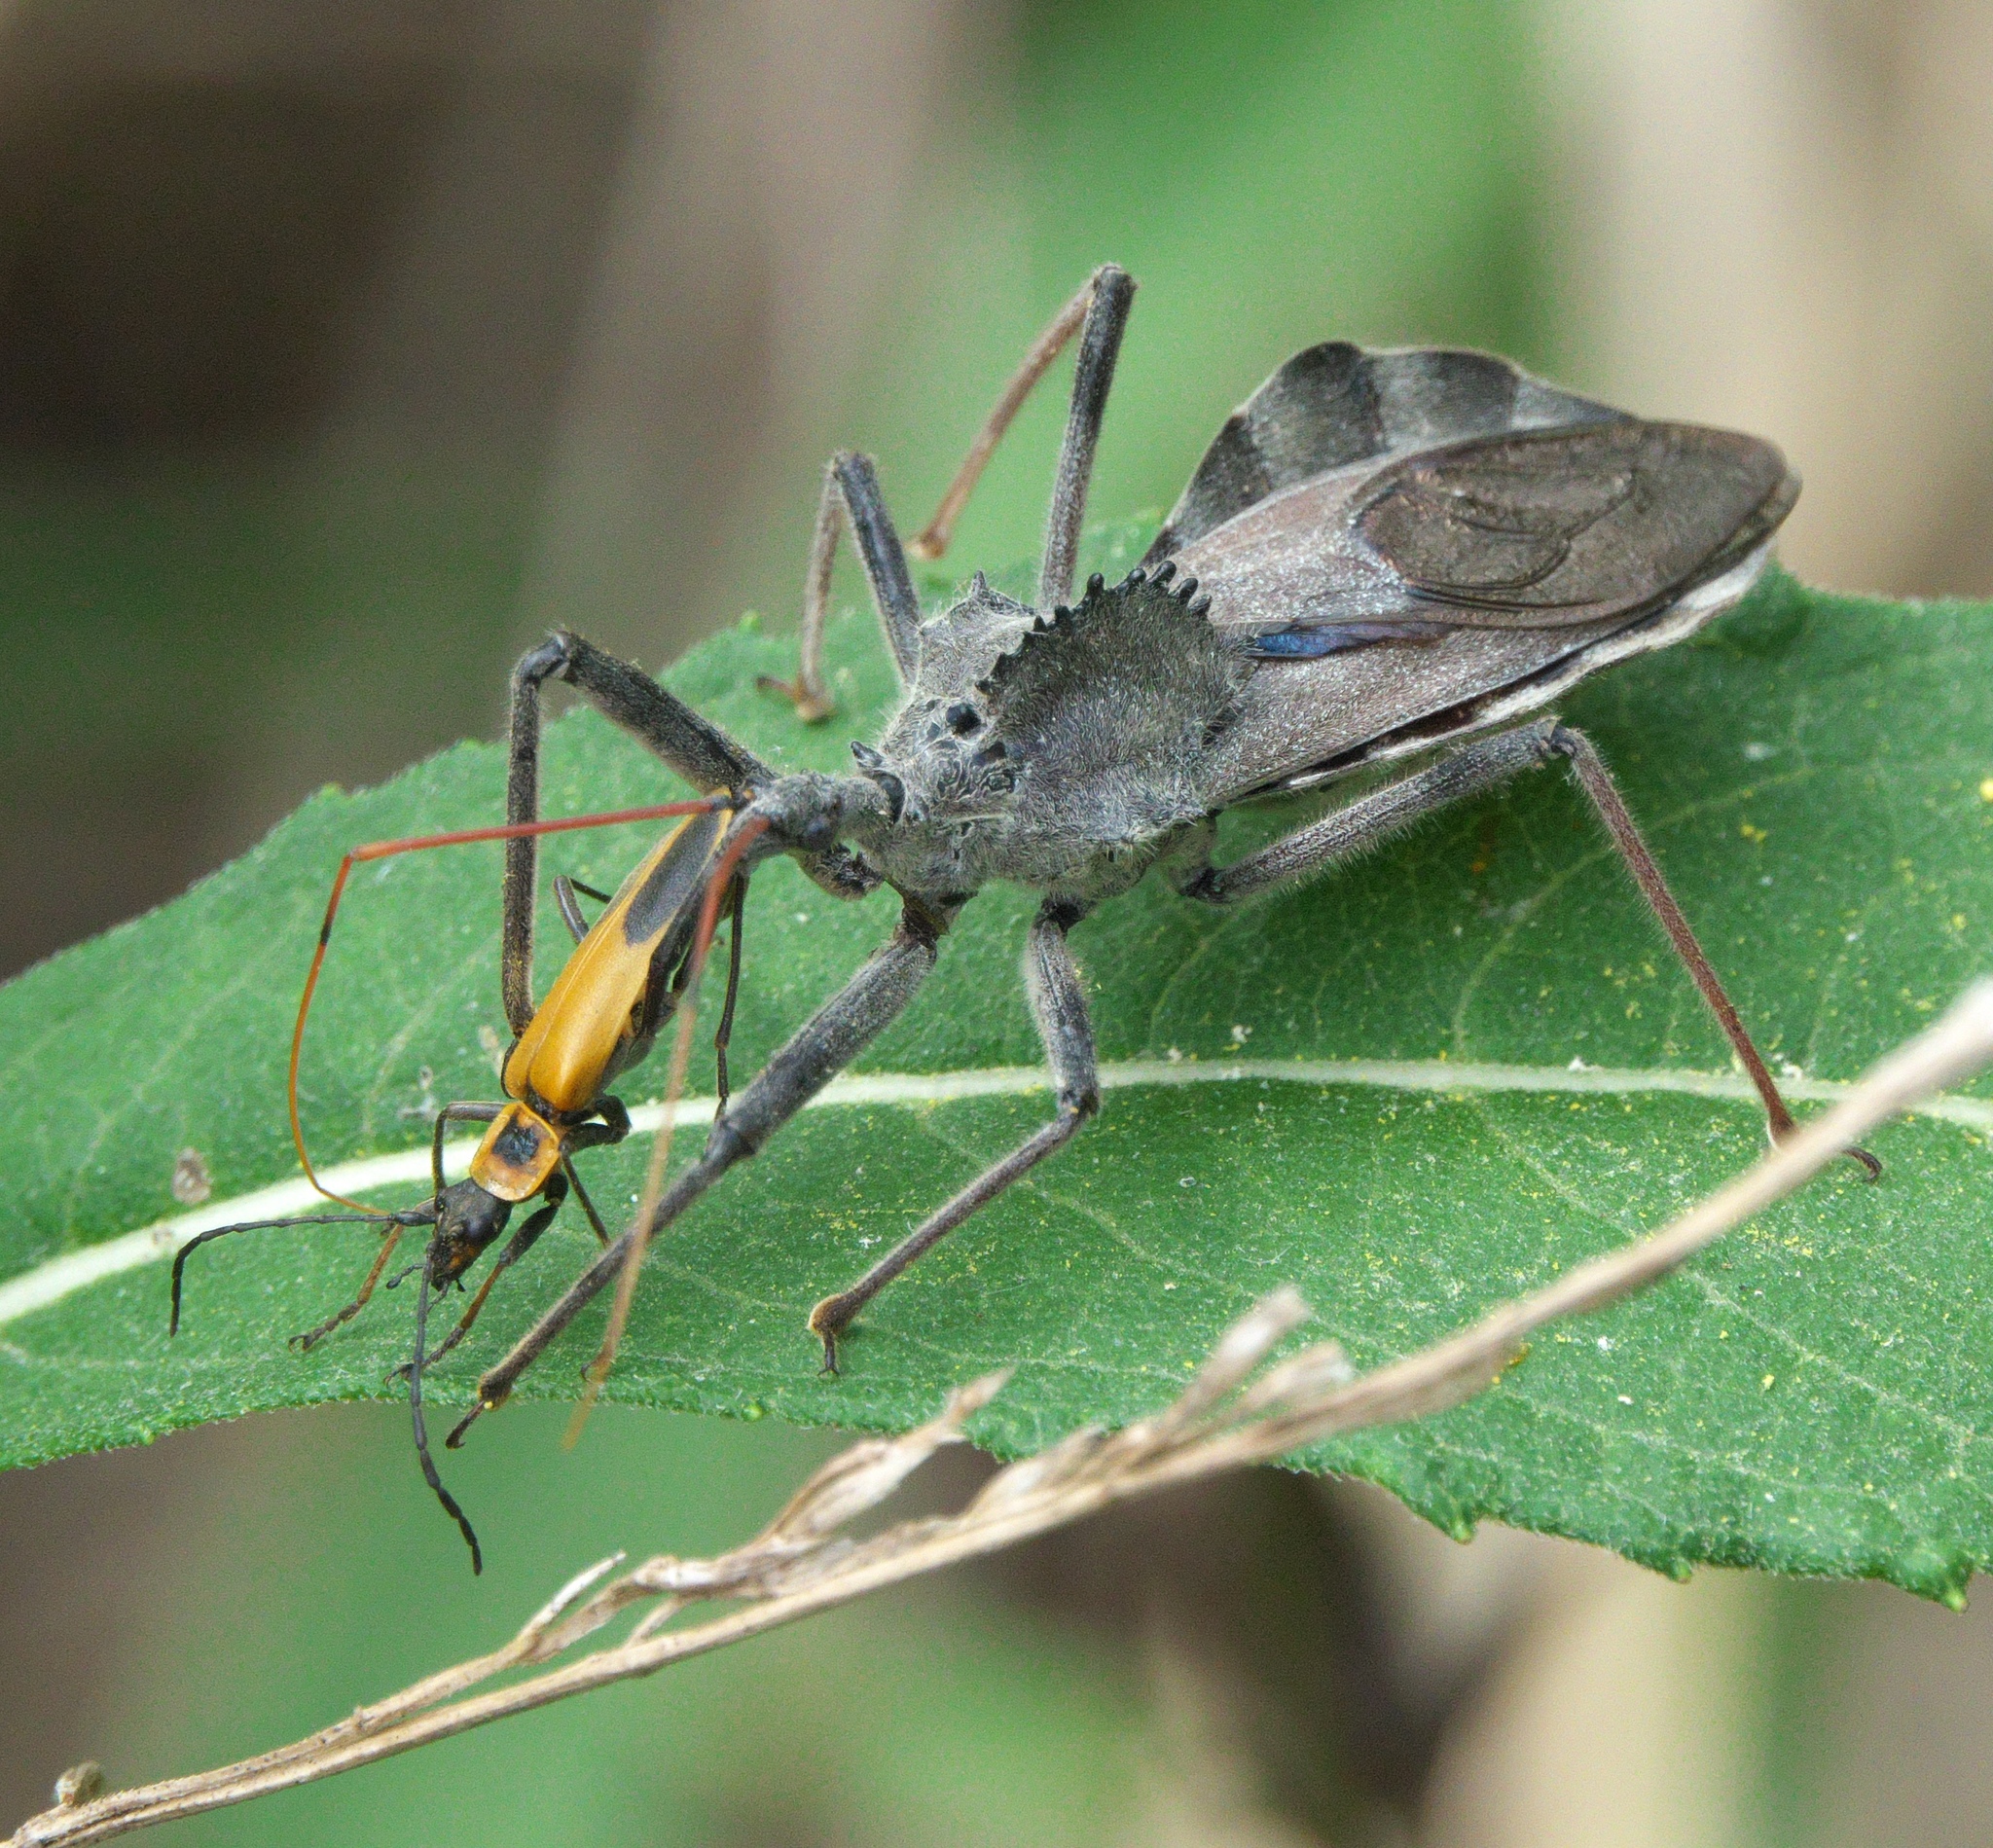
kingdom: Animalia
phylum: Arthropoda
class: Insecta
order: Hemiptera
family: Reduviidae
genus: Arilus
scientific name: Arilus cristatus
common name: North american wheel bug
